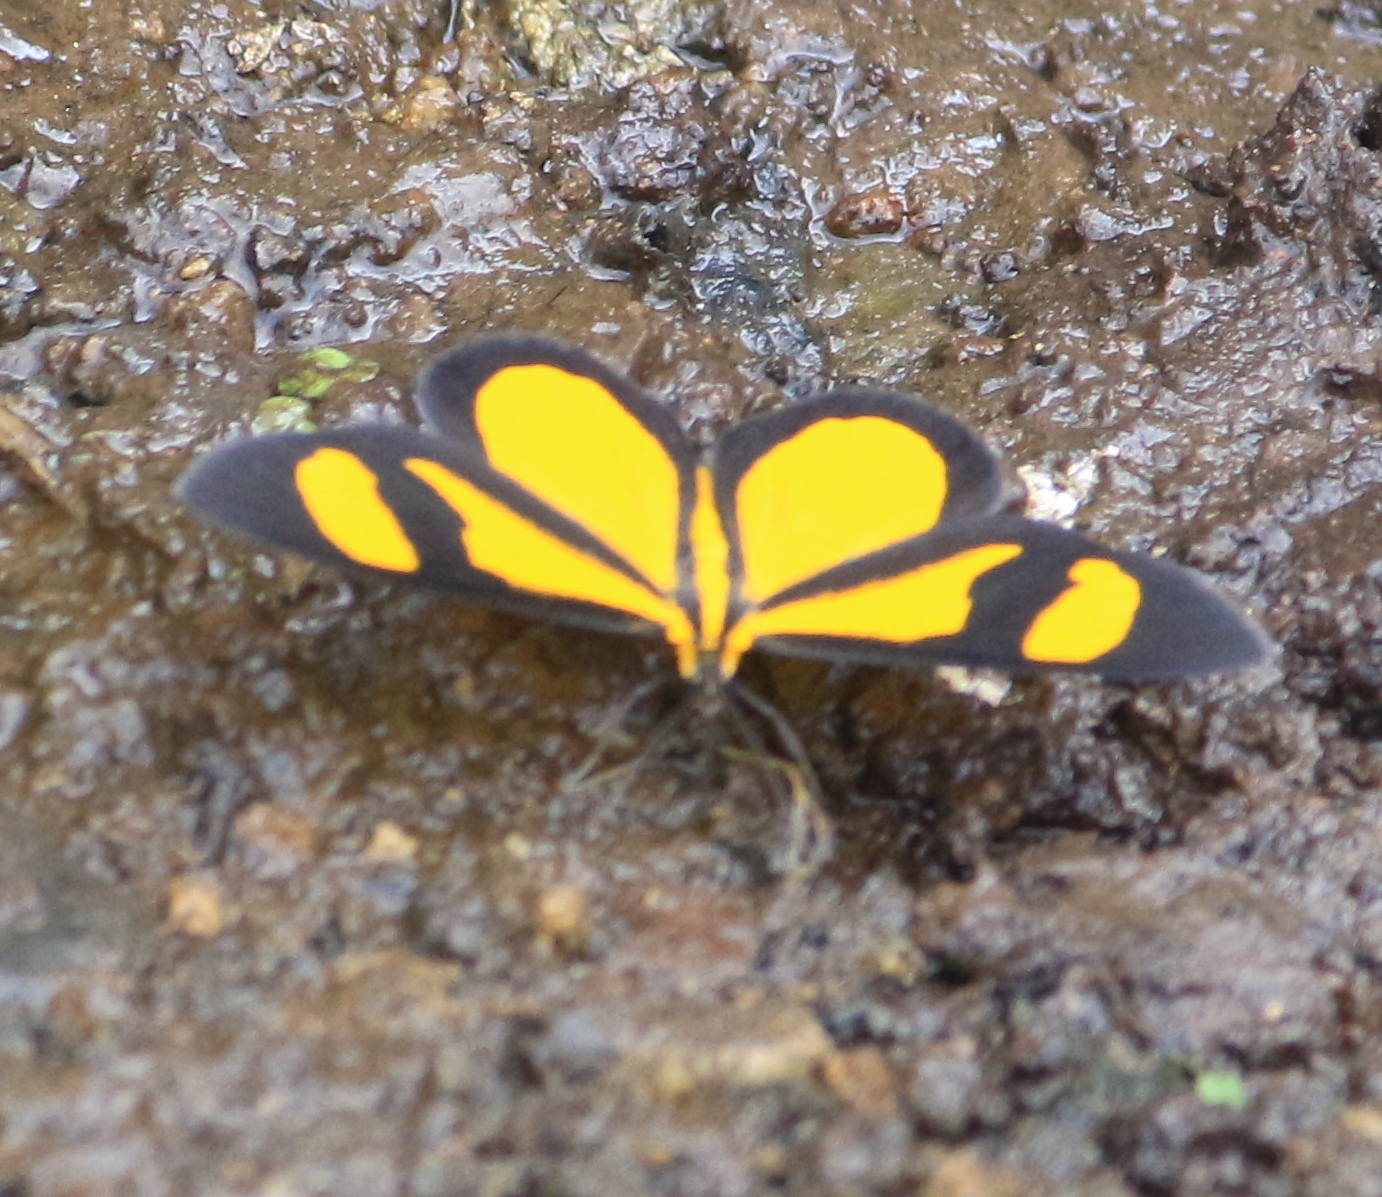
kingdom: Animalia
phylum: Arthropoda
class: Insecta
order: Lepidoptera
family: Geometridae
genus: Smicropus
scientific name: Smicropus laeta
